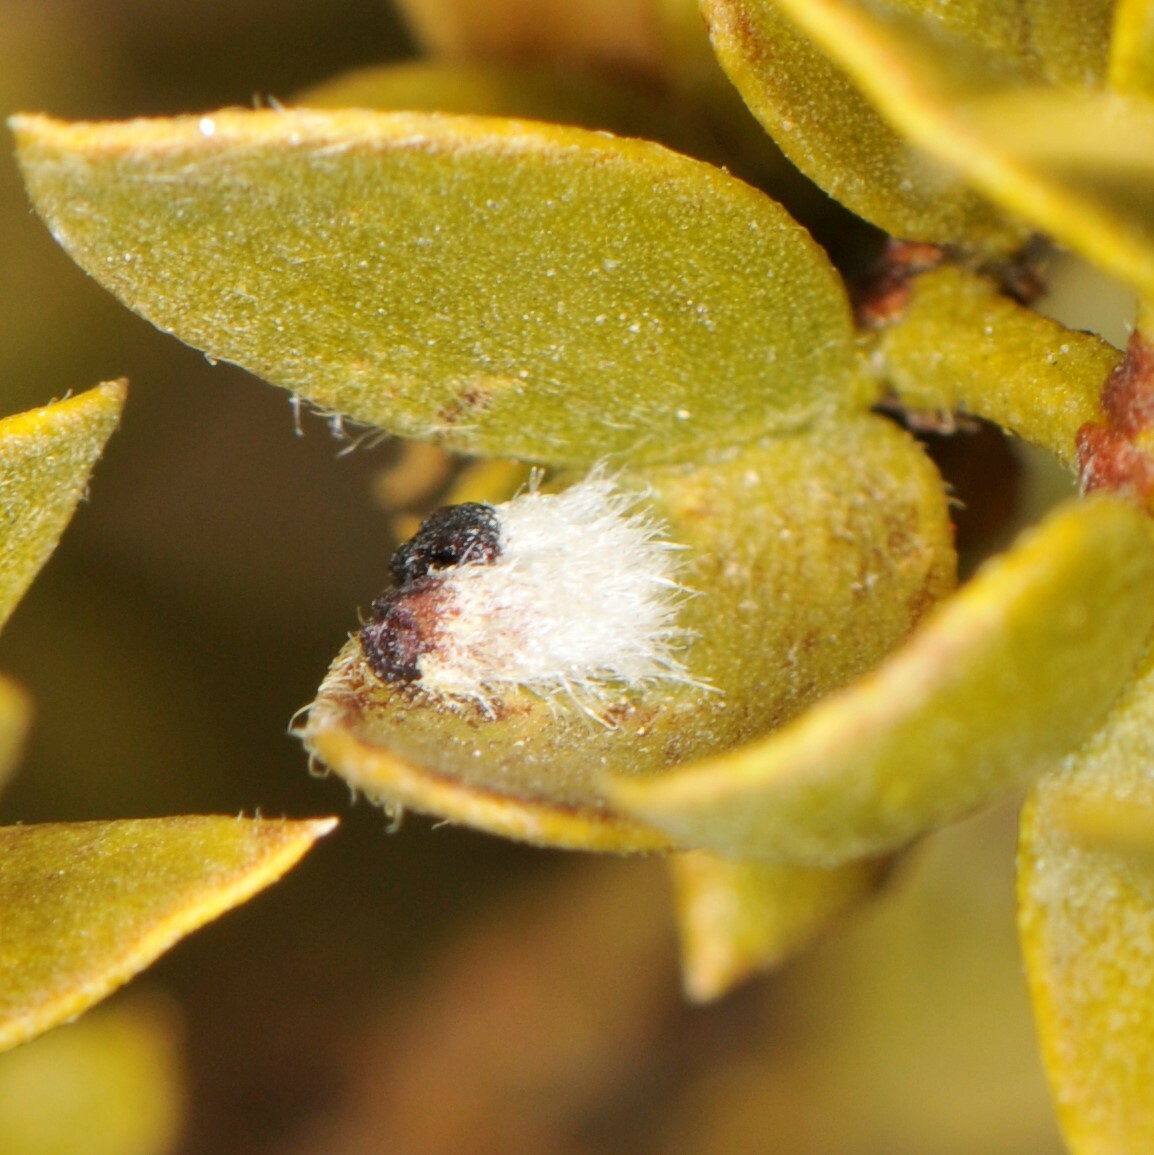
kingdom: Animalia
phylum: Arthropoda
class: Insecta
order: Diptera
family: Cecidomyiidae
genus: Asphondylia
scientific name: Asphondylia barbata
